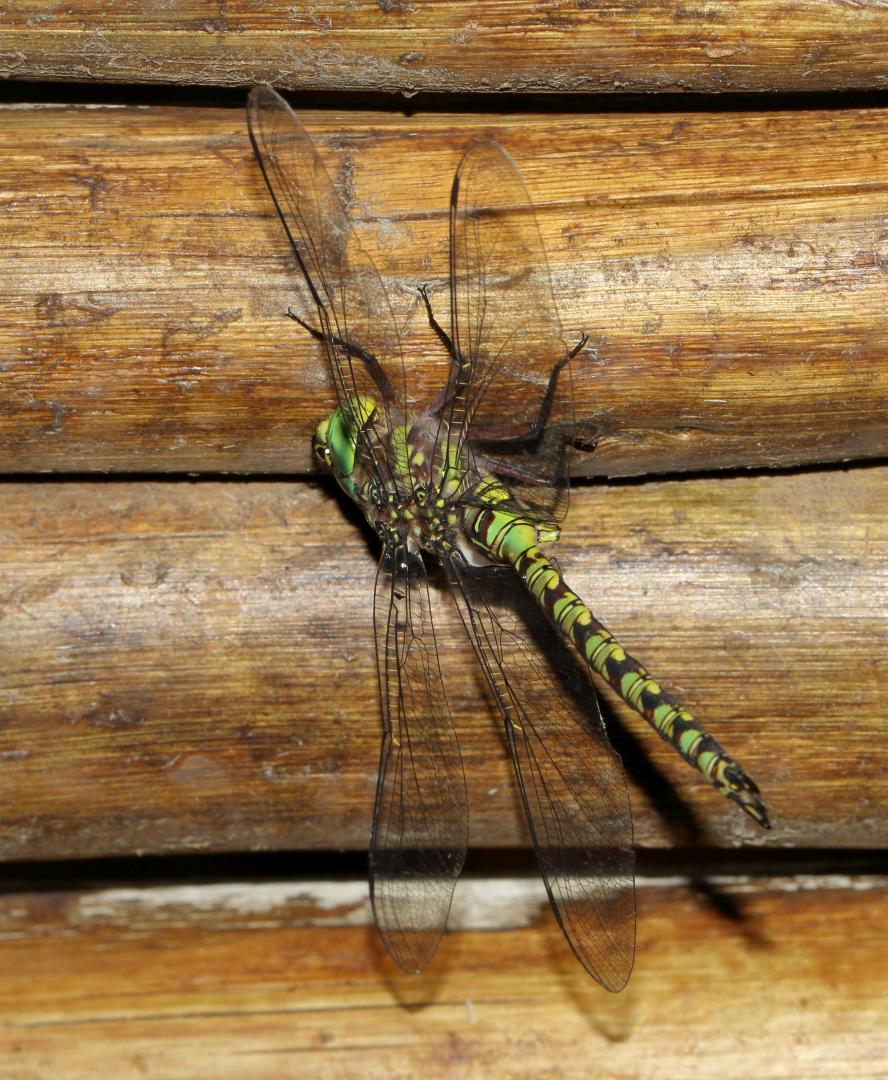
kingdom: Animalia
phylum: Arthropoda
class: Insecta
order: Odonata
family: Aeshnidae
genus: Pinheyschna
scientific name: Pinheyschna subpupillata
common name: Stream hawker
